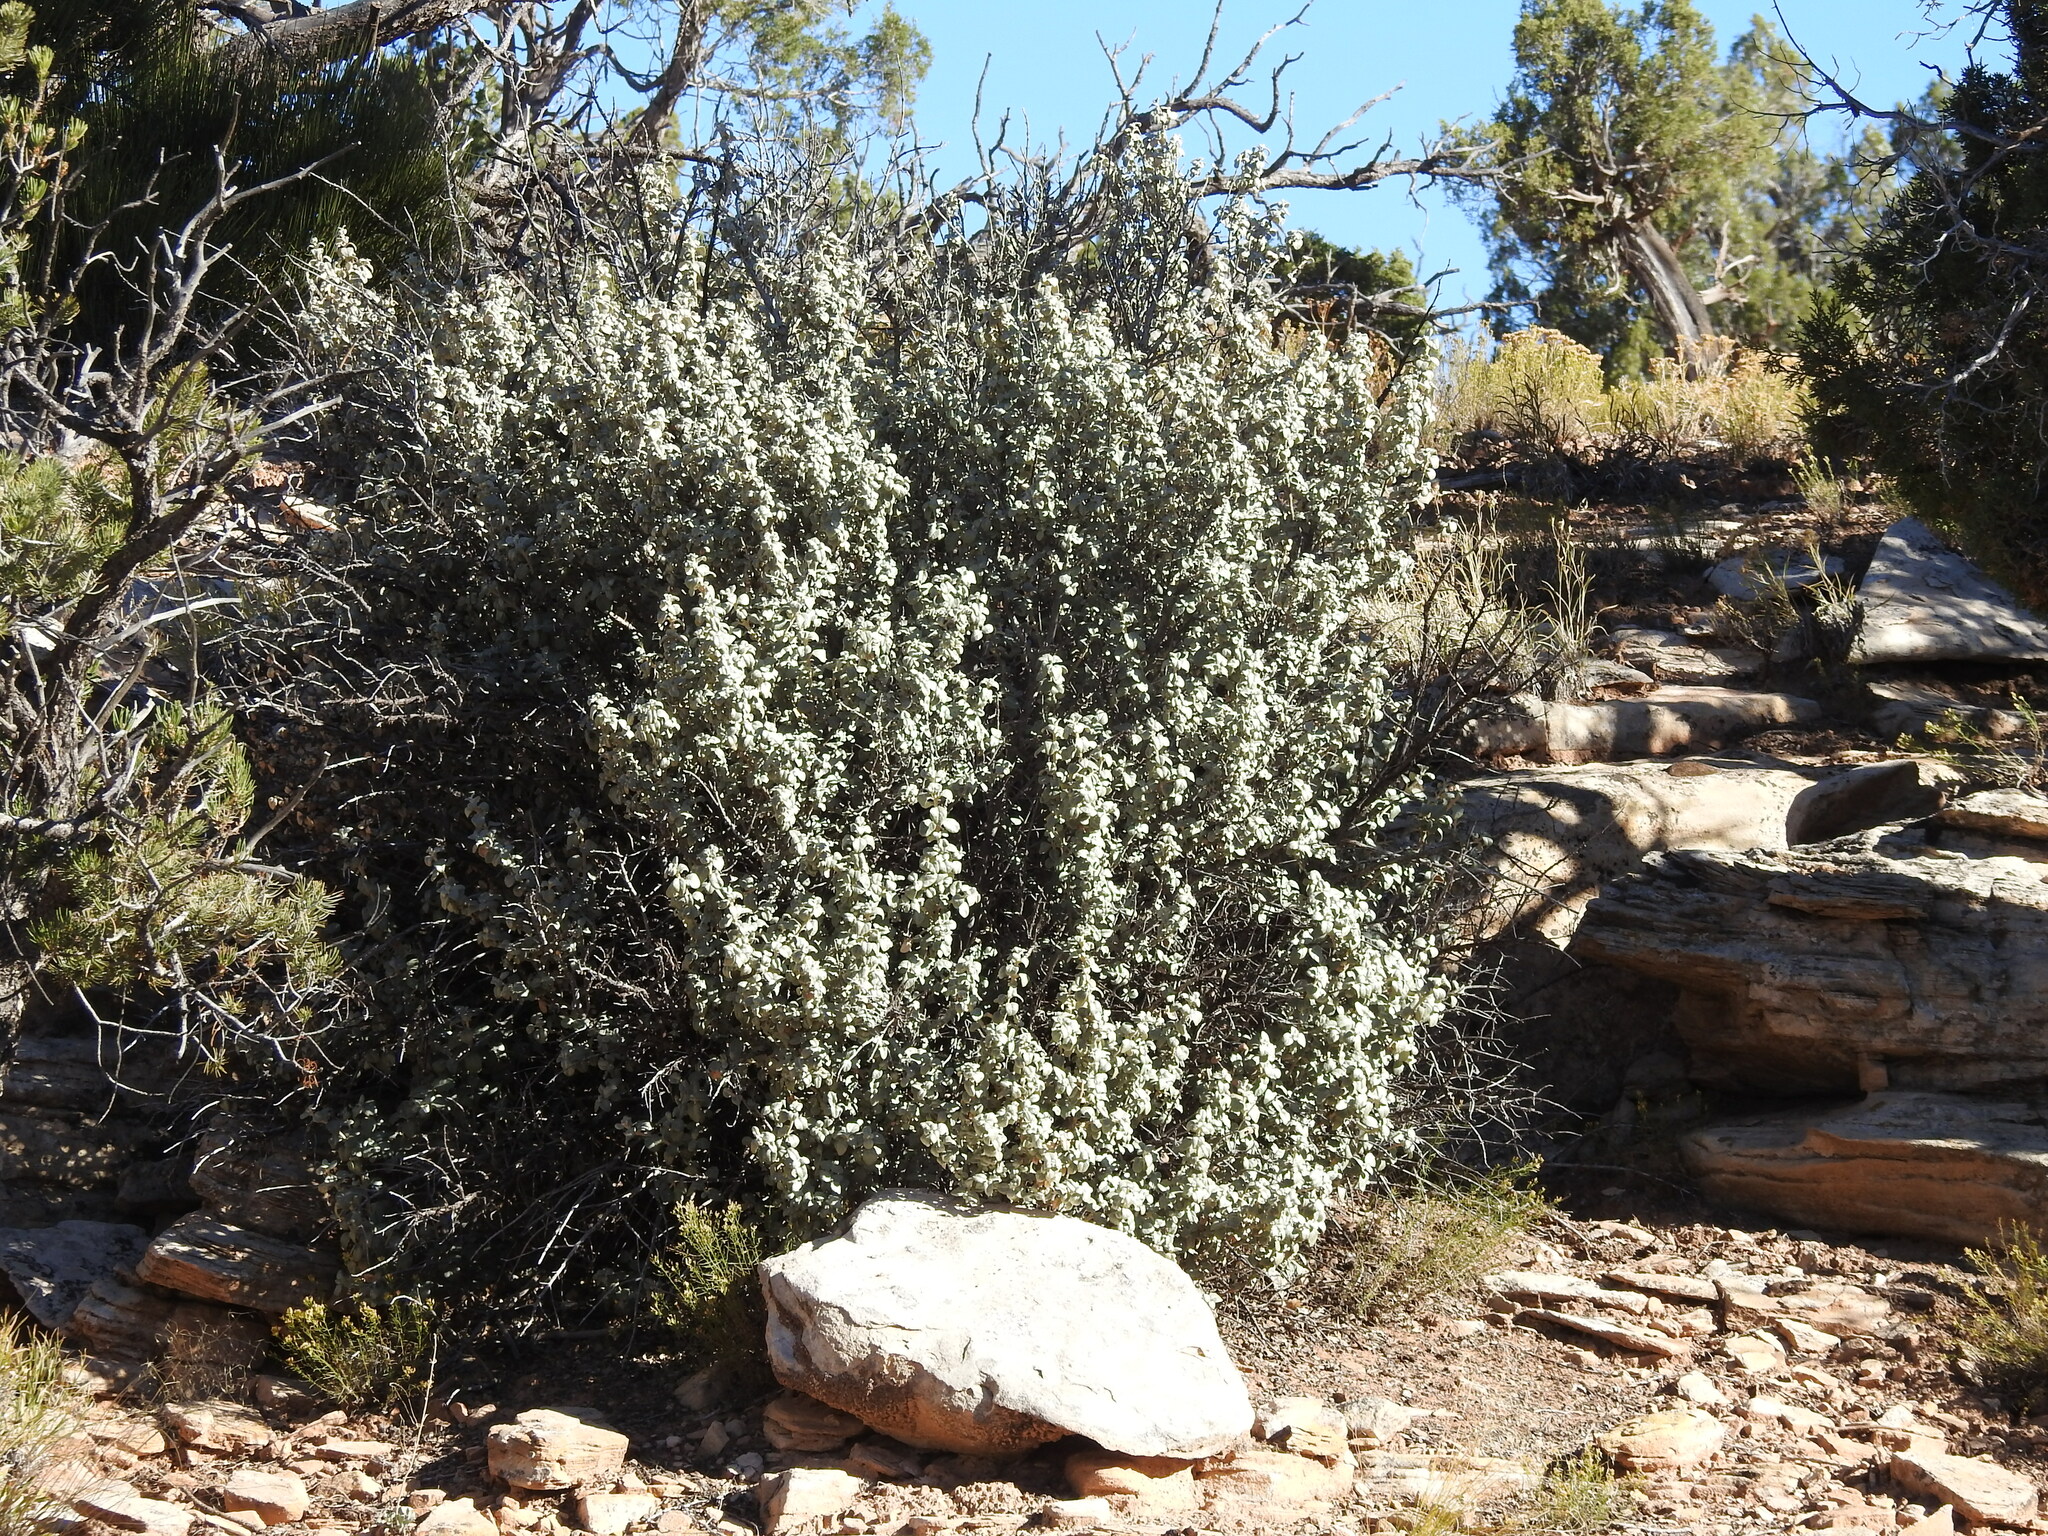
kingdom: Plantae
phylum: Tracheophyta
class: Magnoliopsida
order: Rosales
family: Elaeagnaceae
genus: Shepherdia
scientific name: Shepherdia rotundifolia
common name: Silverscale
